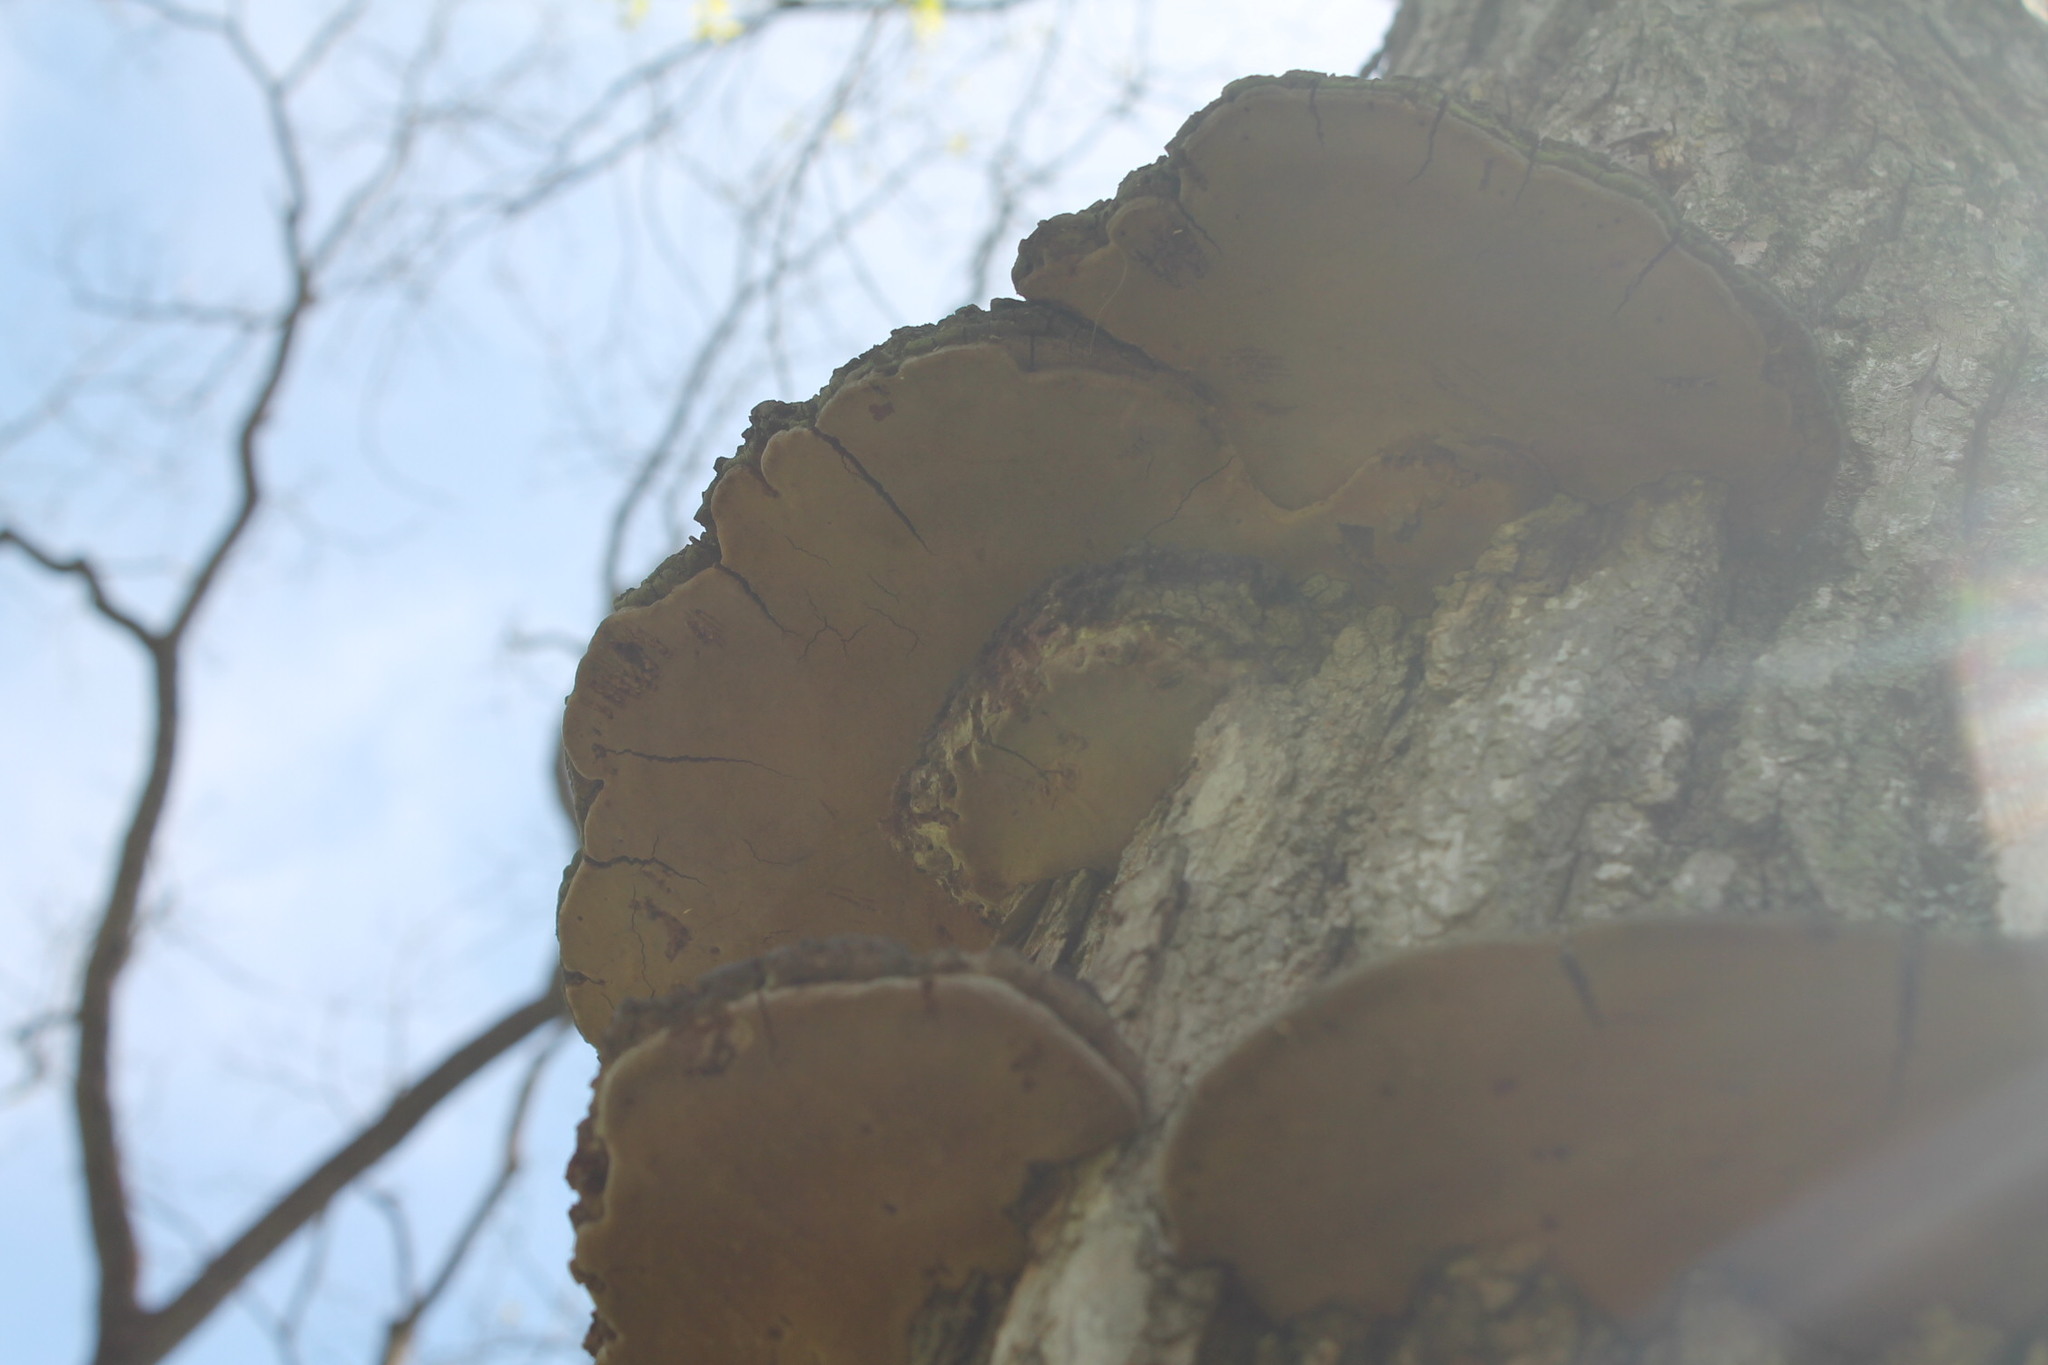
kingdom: Fungi
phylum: Basidiomycota
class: Agaricomycetes
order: Hymenochaetales
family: Hymenochaetaceae
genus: Phellinus
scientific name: Phellinus robiniae
